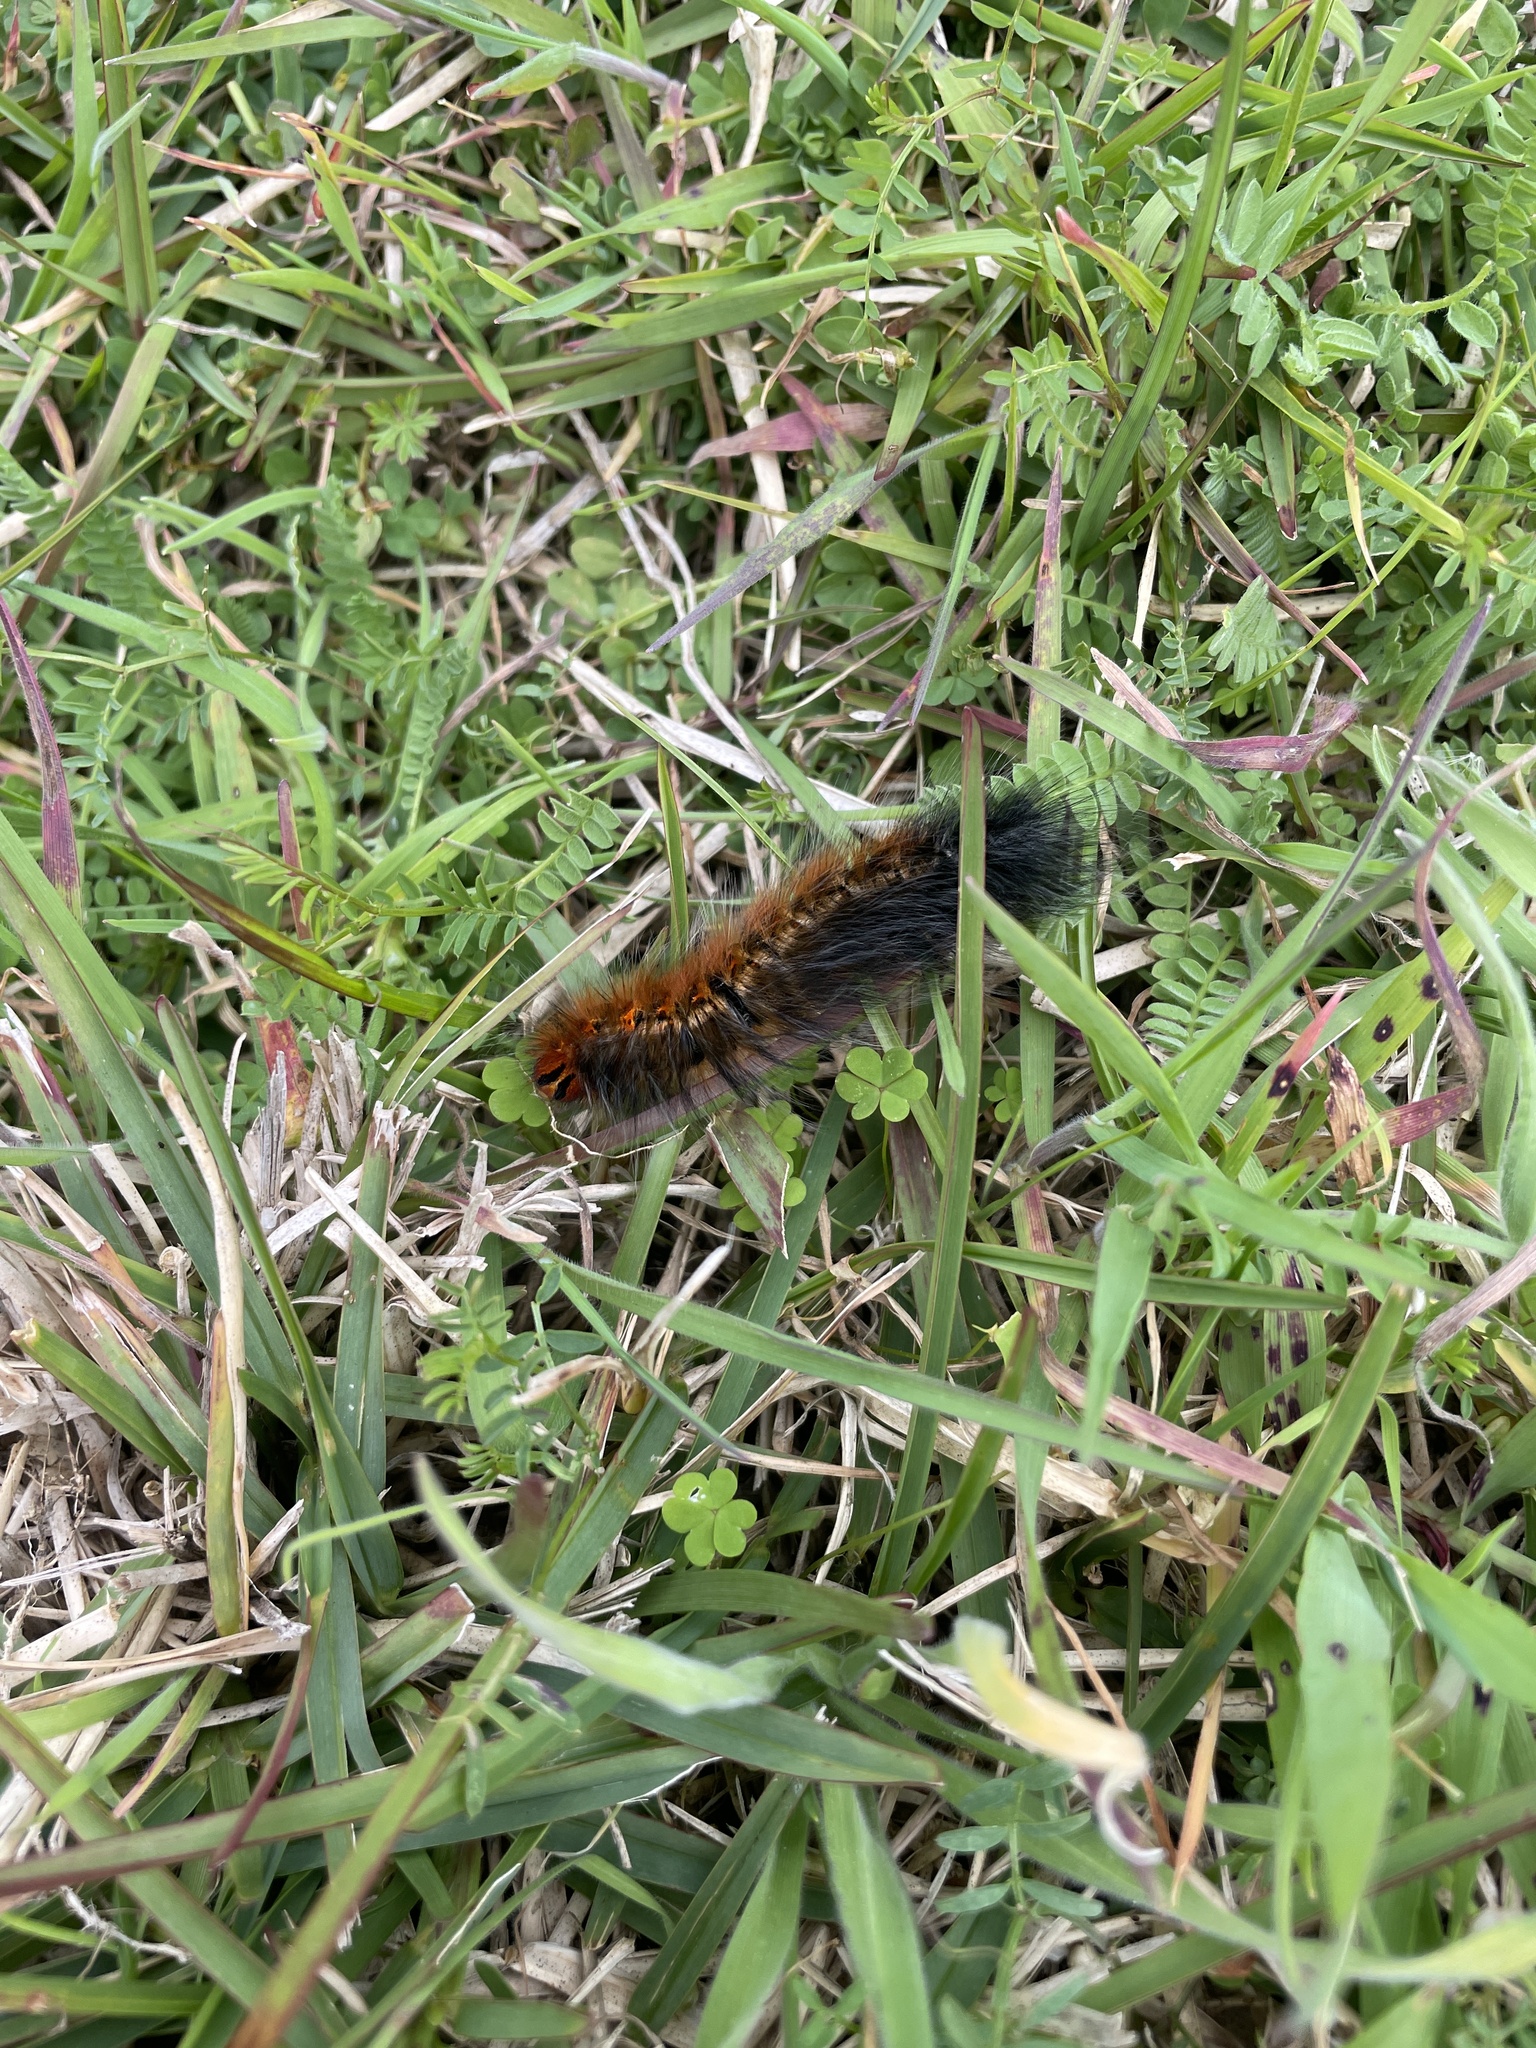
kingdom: Animalia
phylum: Arthropoda
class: Insecta
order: Lepidoptera
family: Lasiocampidae
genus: Mesocelis
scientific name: Mesocelis monticola
